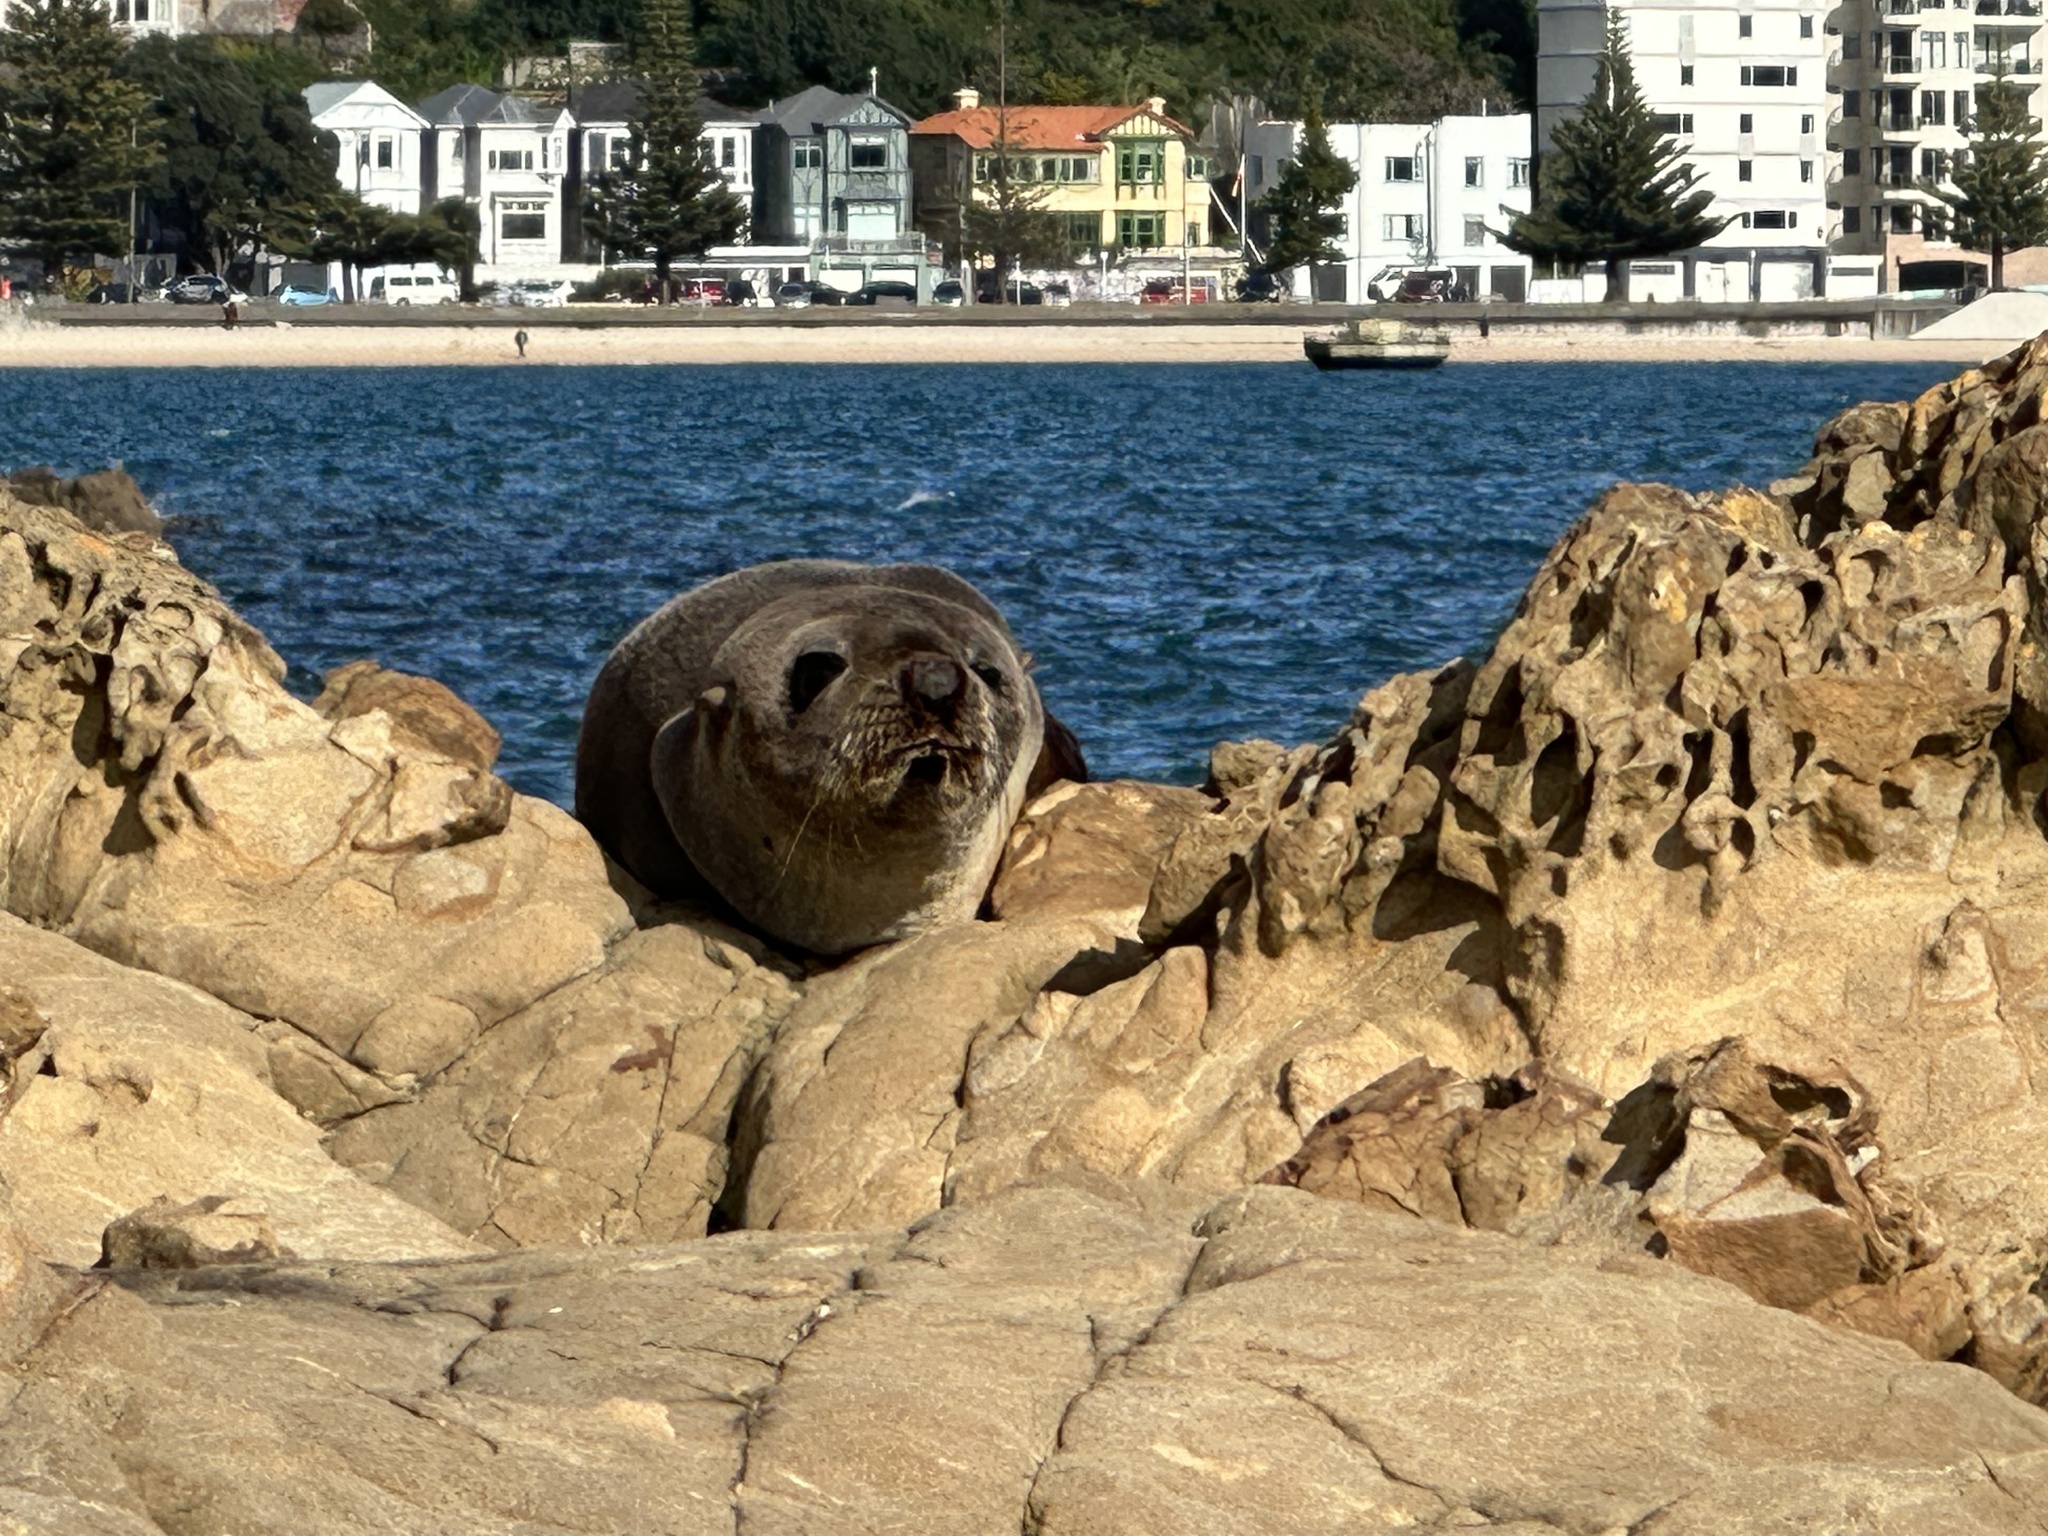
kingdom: Animalia
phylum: Chordata
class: Mammalia
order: Carnivora
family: Otariidae
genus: Arctocephalus
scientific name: Arctocephalus forsteri
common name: New zealand fur seal
